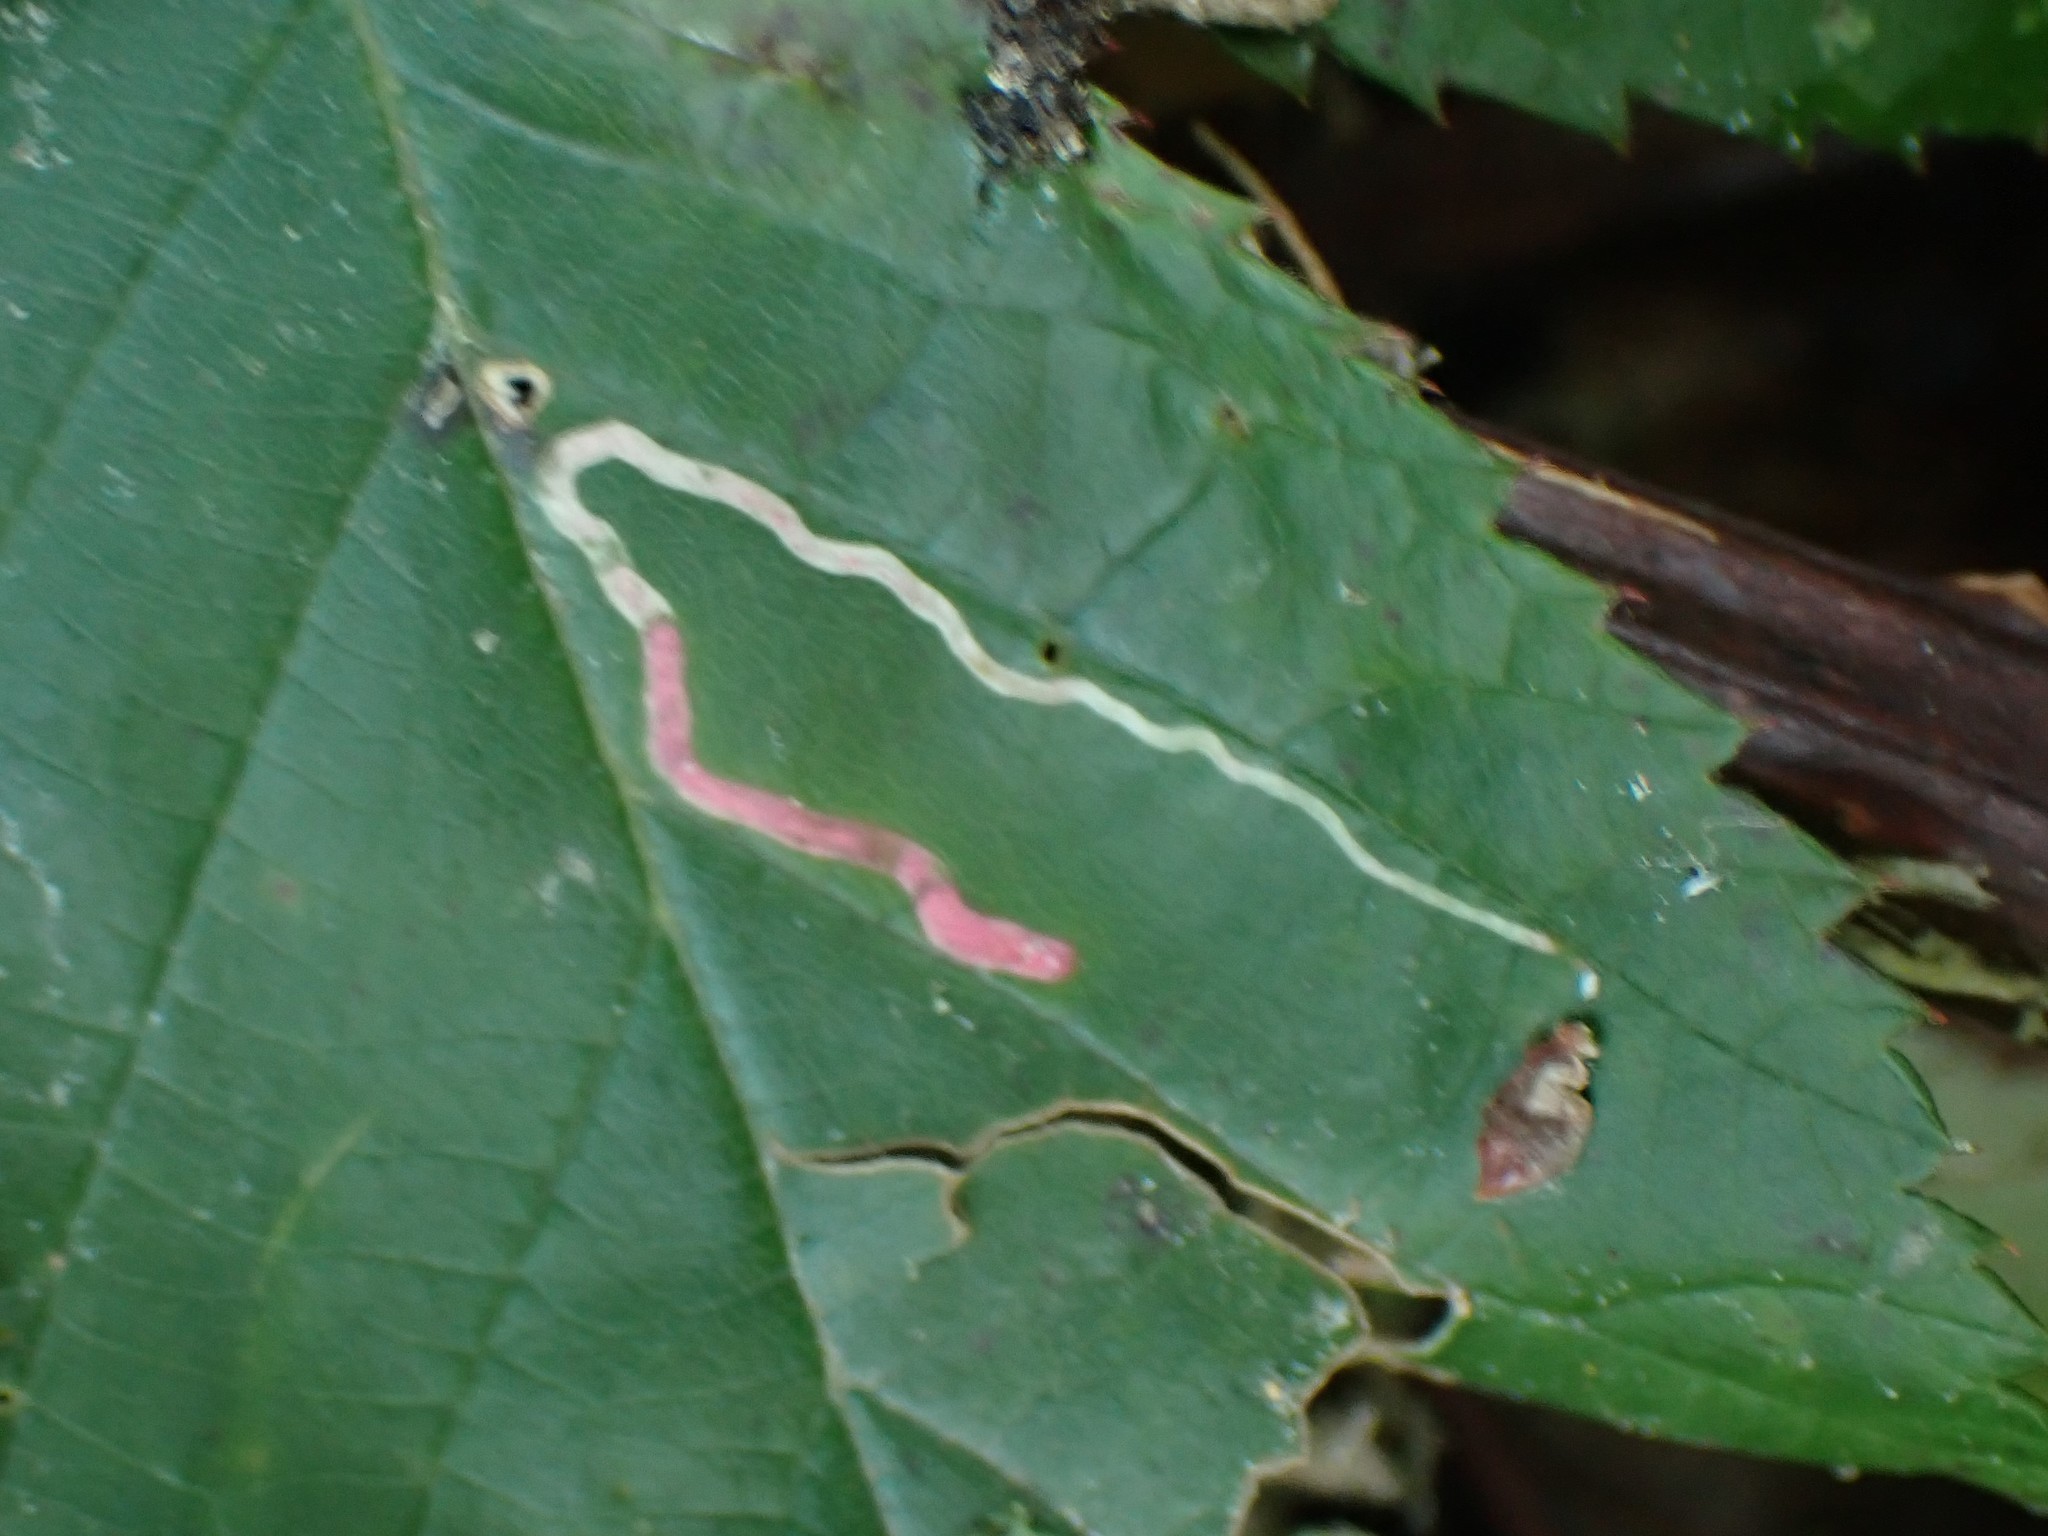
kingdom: Animalia
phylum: Arthropoda
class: Insecta
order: Diptera
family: Agromyzidae
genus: Agromyza
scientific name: Agromyza vockerothi
